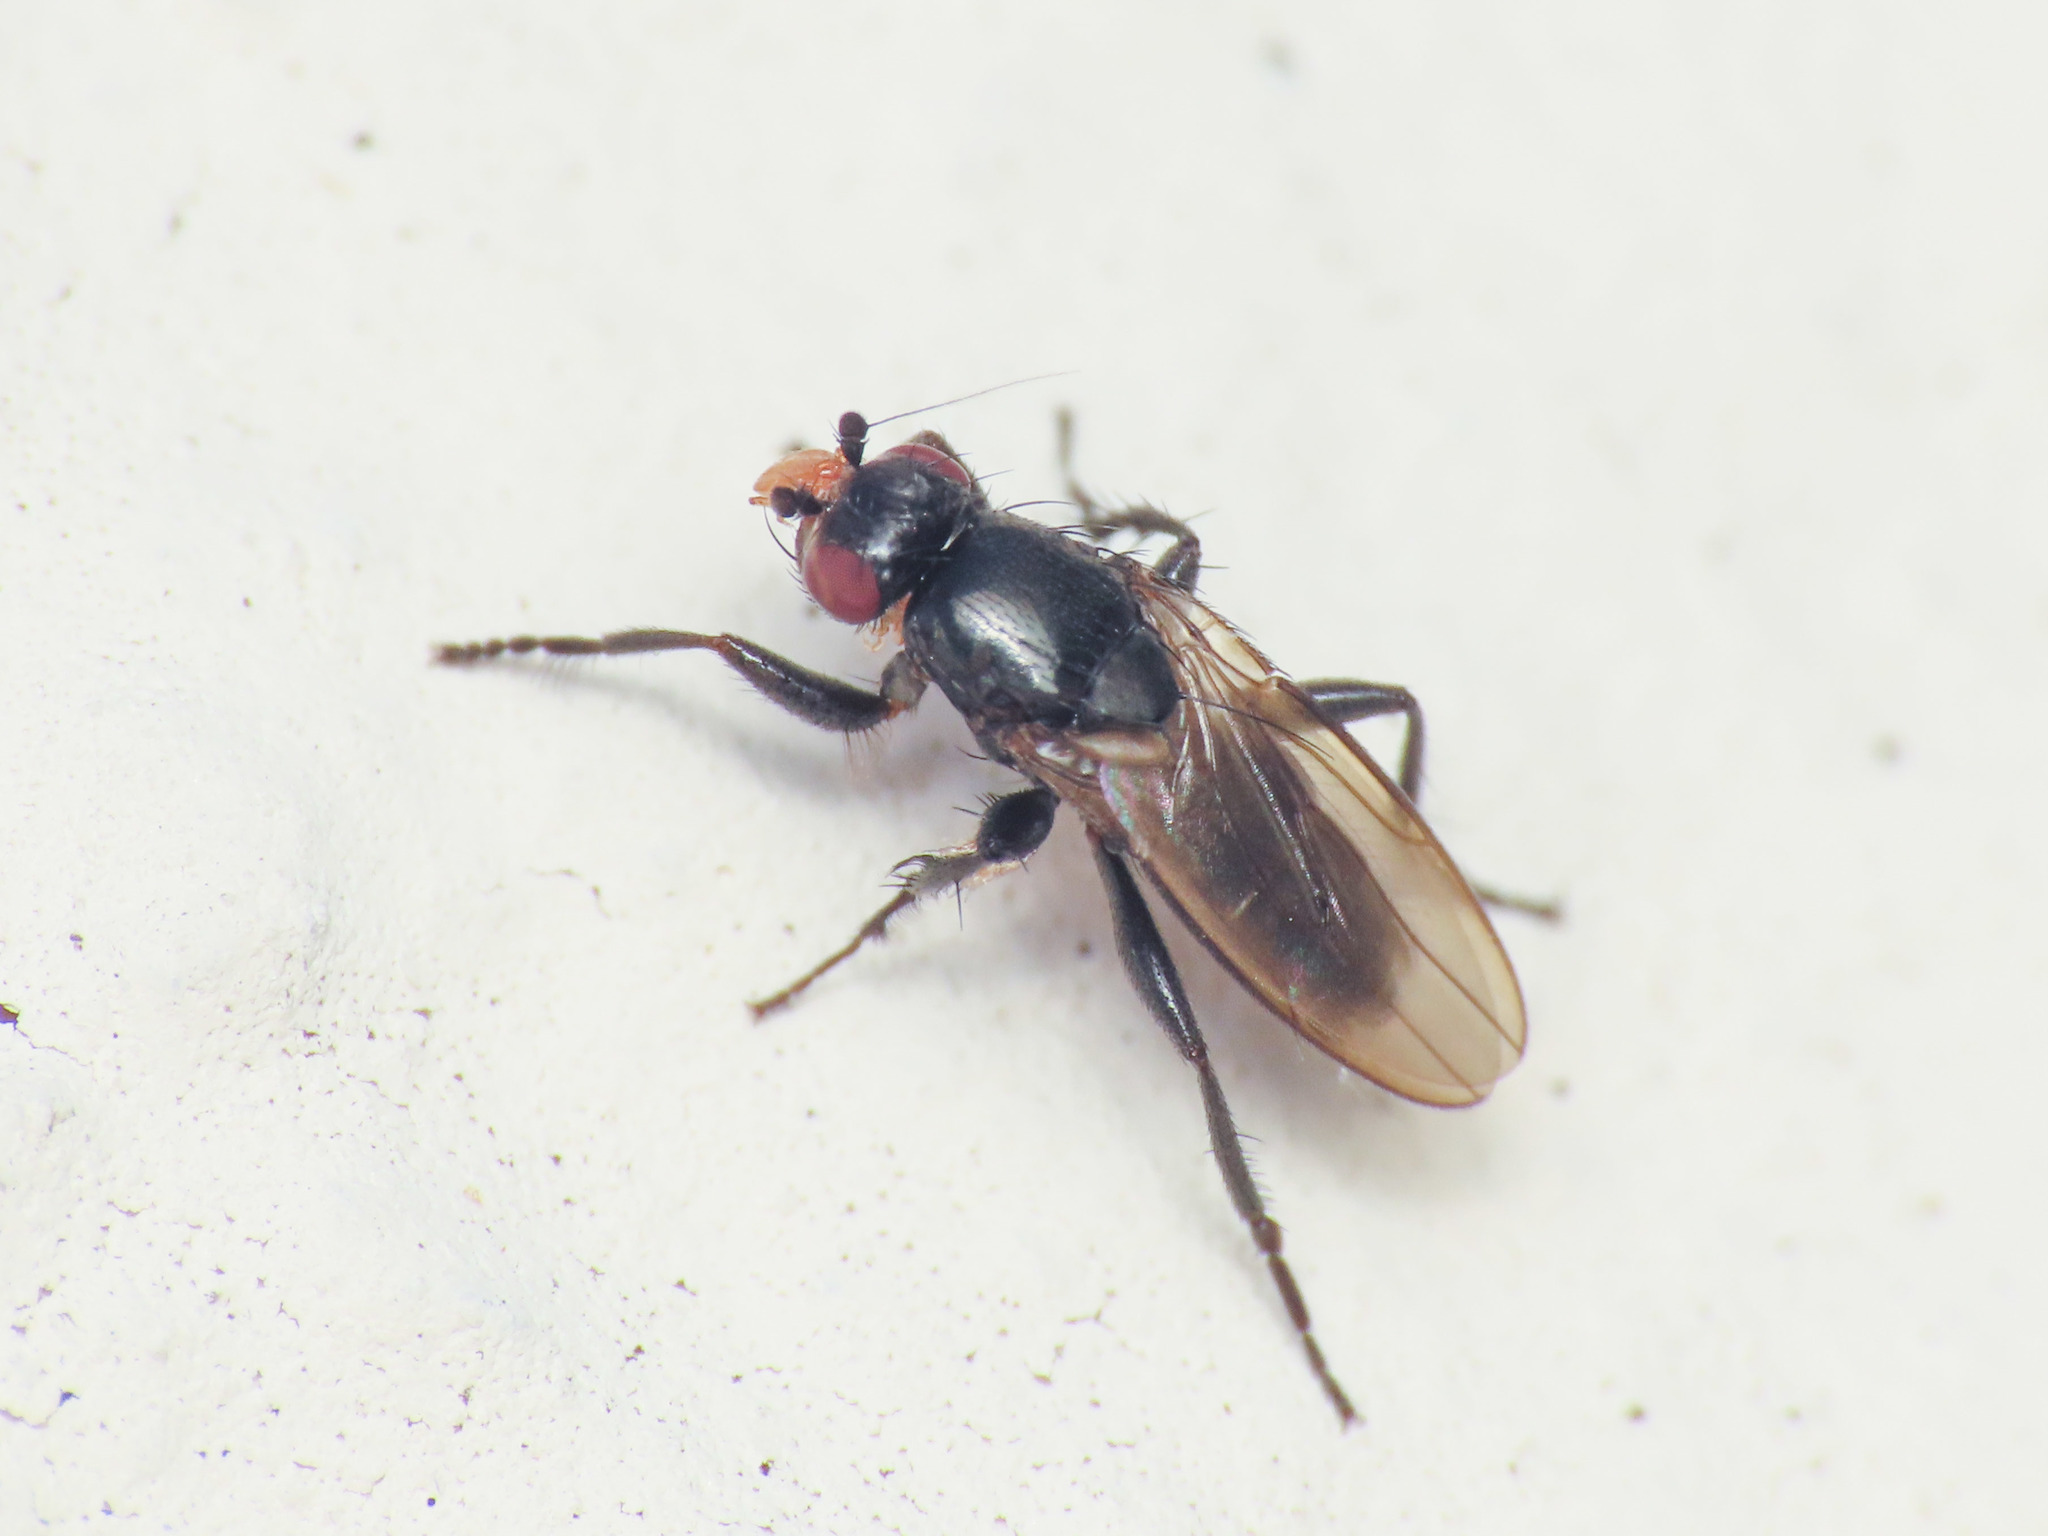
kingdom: Animalia
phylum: Arthropoda
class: Insecta
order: Diptera
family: Sphaeroceridae
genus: Limosina
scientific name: Limosina silvatica
